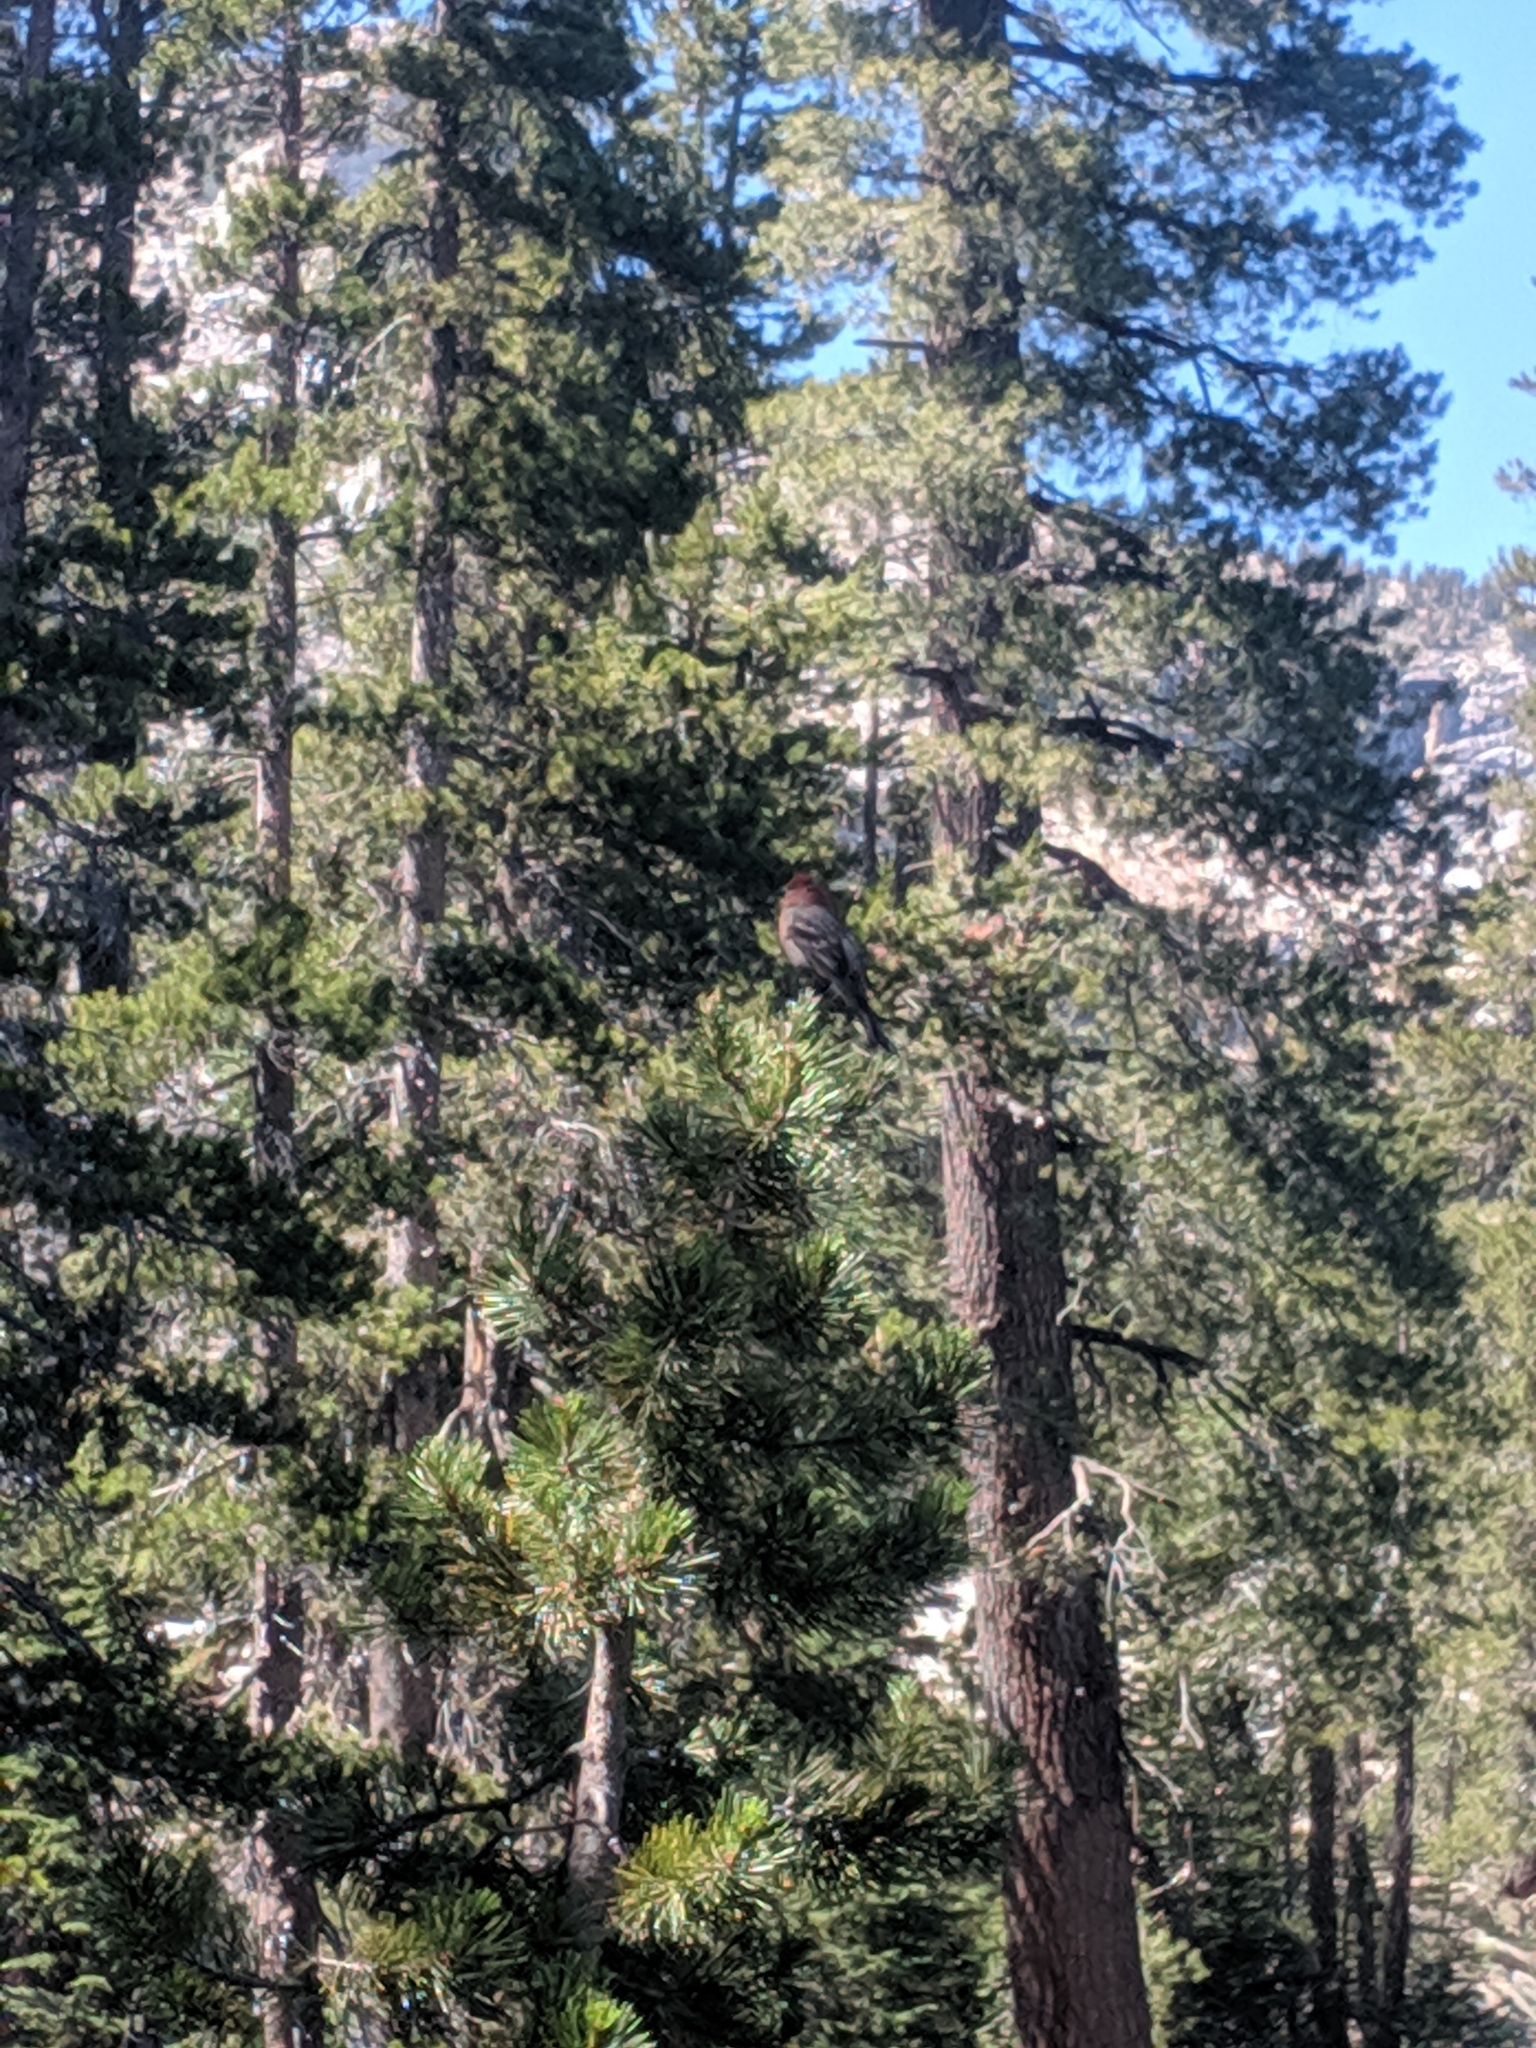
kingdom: Animalia
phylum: Chordata
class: Aves
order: Passeriformes
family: Fringillidae
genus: Pinicola
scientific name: Pinicola enucleator
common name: Pine grosbeak
